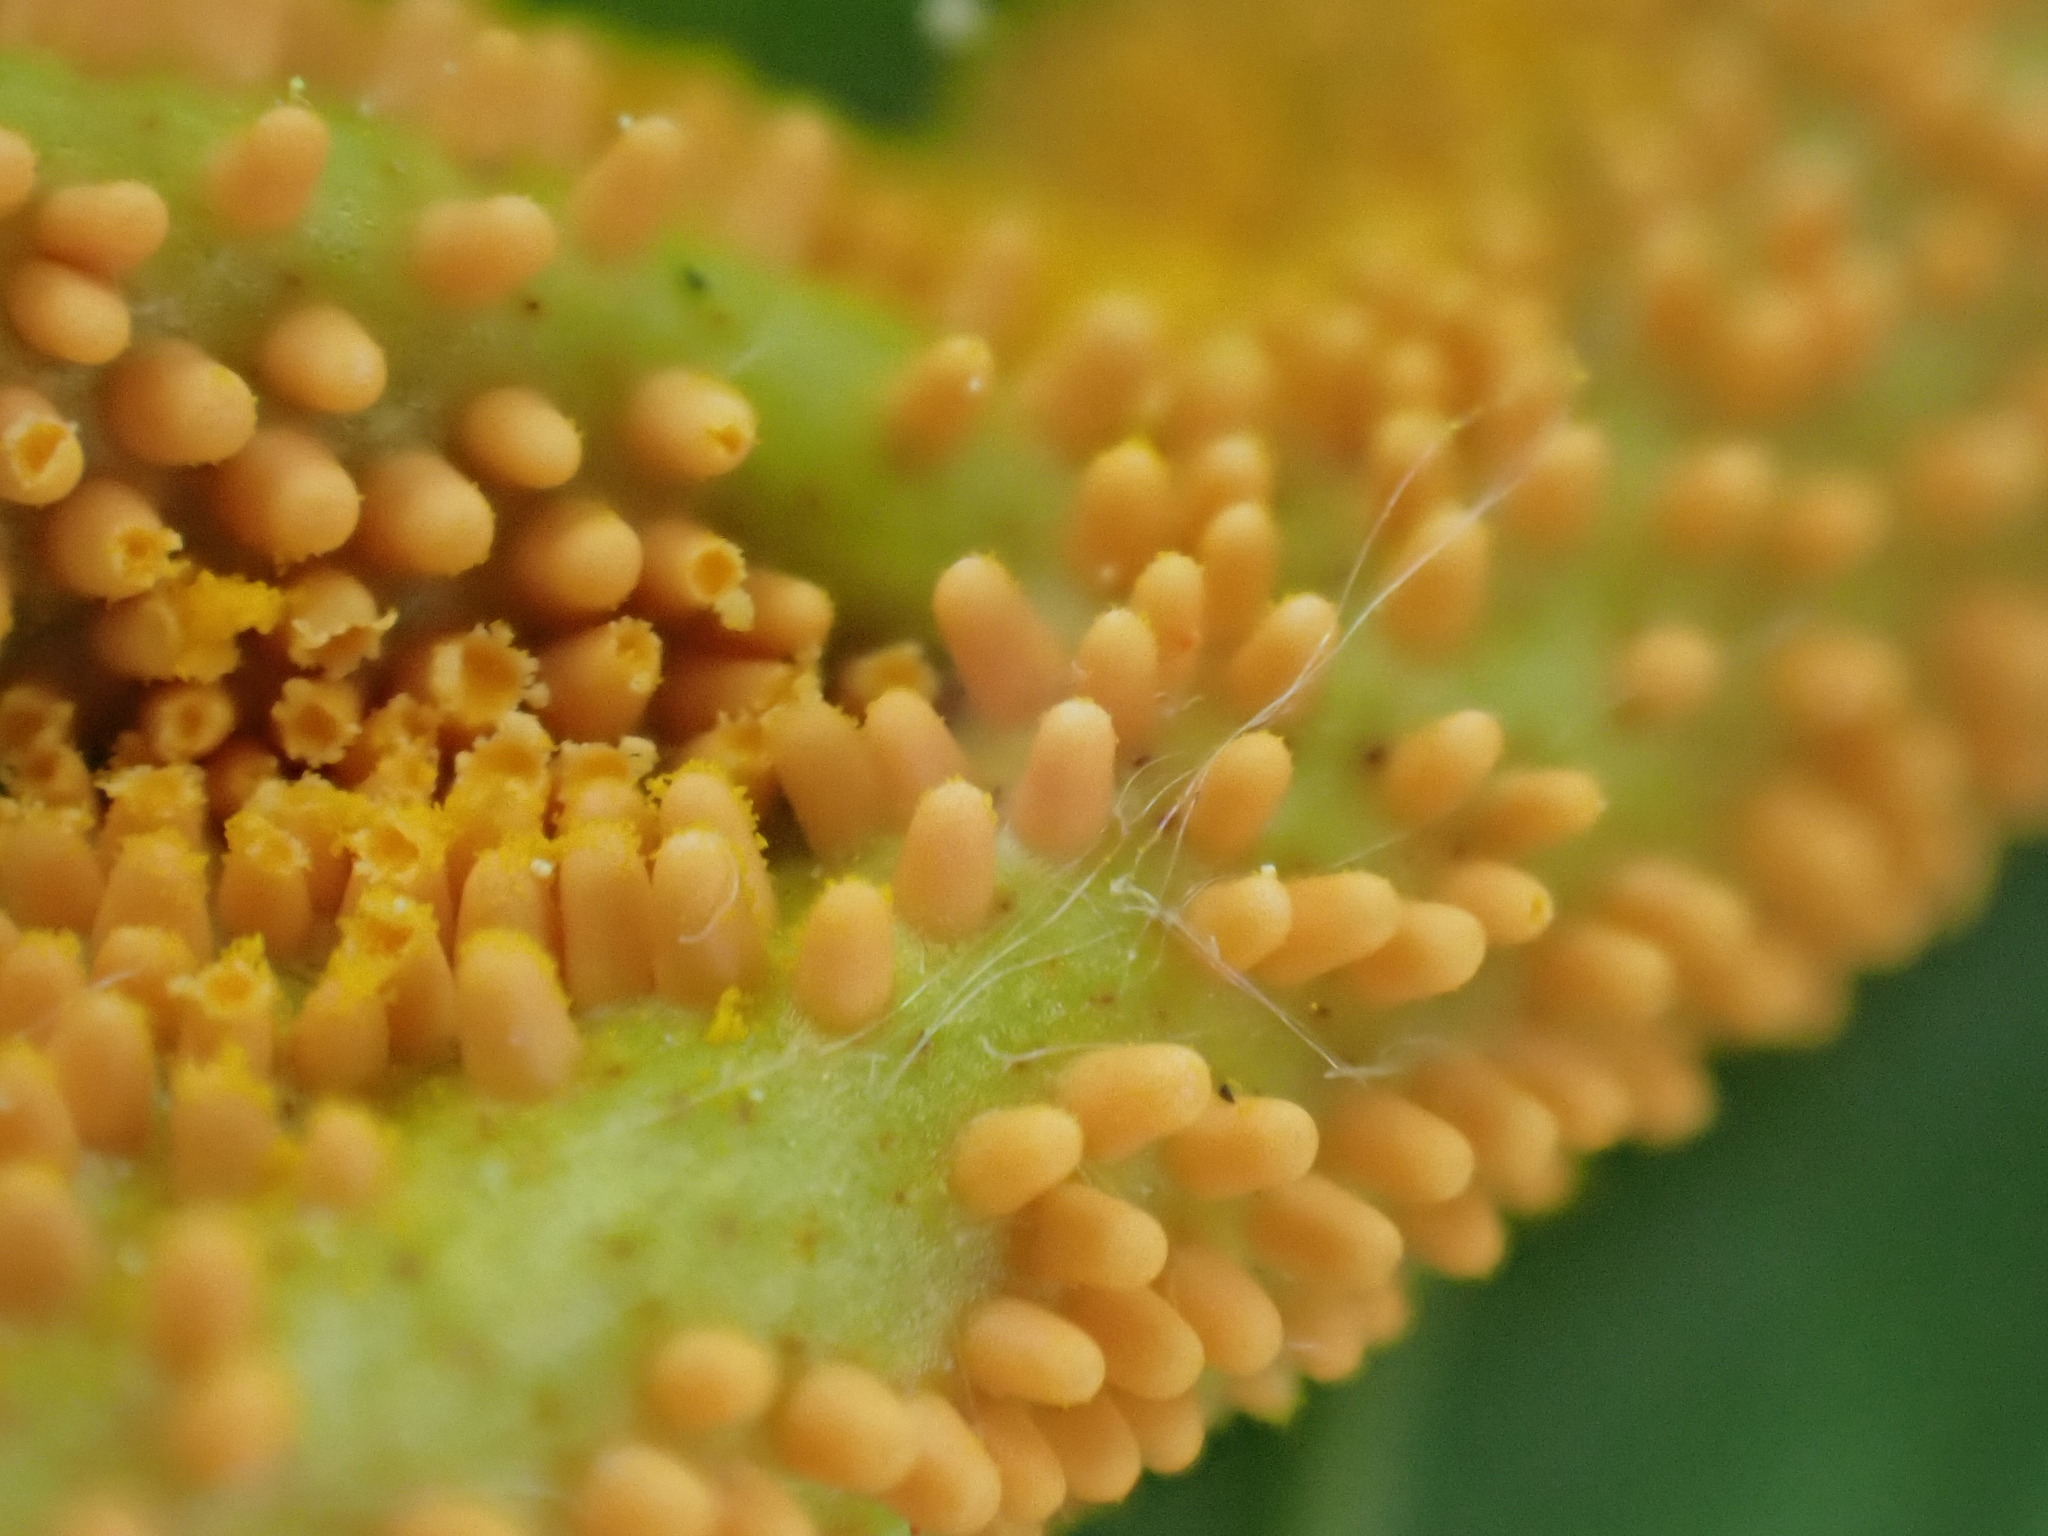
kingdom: Fungi
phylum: Basidiomycota
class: Pucciniomycetes
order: Pucciniales
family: Pucciniaceae
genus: Puccinia
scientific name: Puccinia coronata
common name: Crown rust
